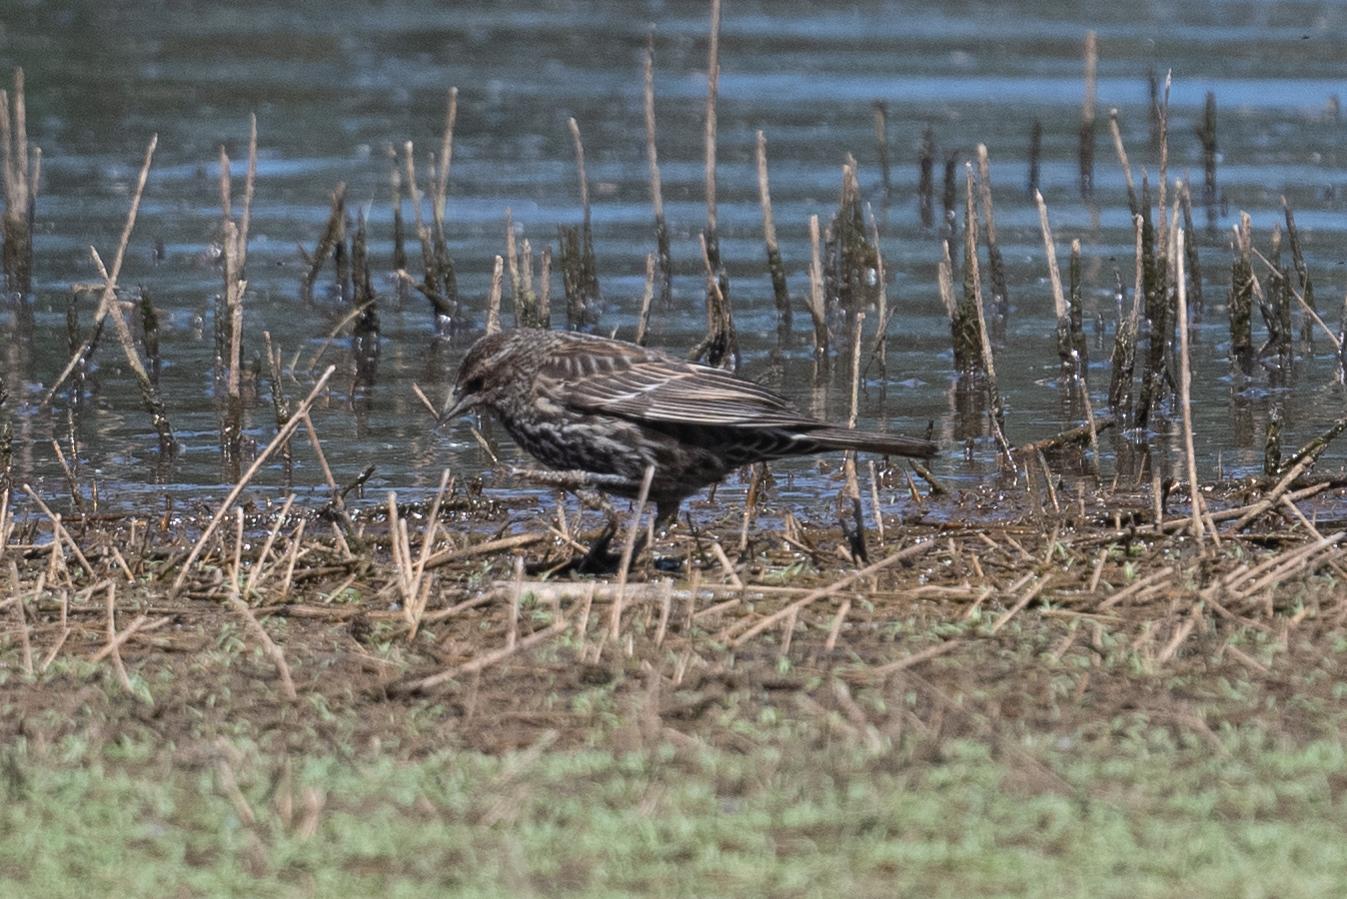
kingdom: Animalia
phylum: Chordata
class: Aves
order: Passeriformes
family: Icteridae
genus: Agelaius
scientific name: Agelaius phoeniceus
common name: Red-winged blackbird
